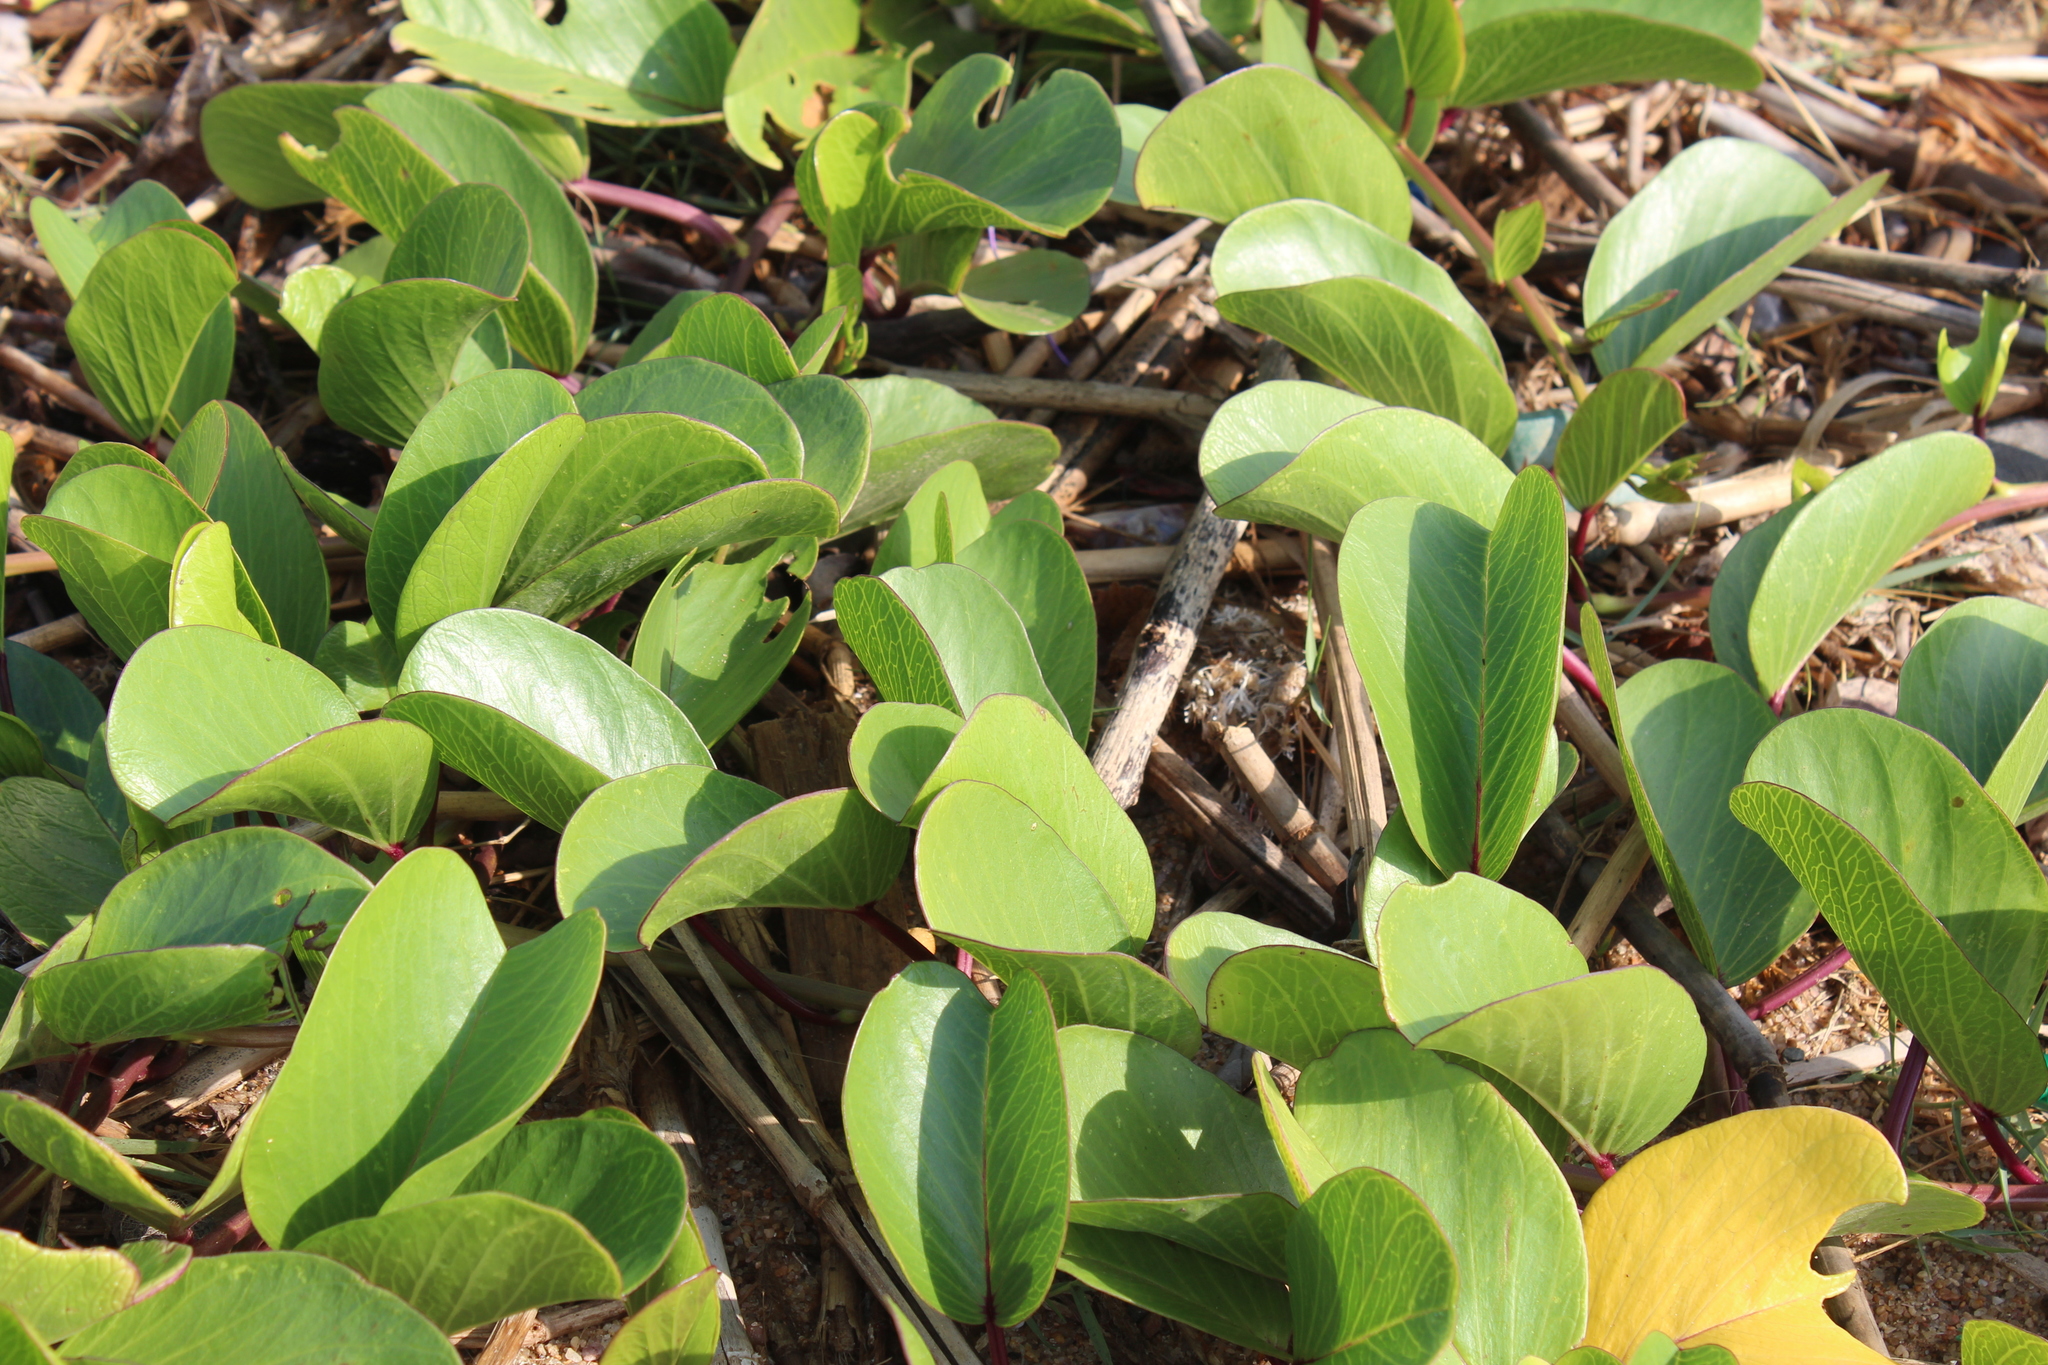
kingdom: Plantae
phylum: Tracheophyta
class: Magnoliopsida
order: Solanales
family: Convolvulaceae
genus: Ipomoea
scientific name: Ipomoea pes-caprae
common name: Beach morning glory
